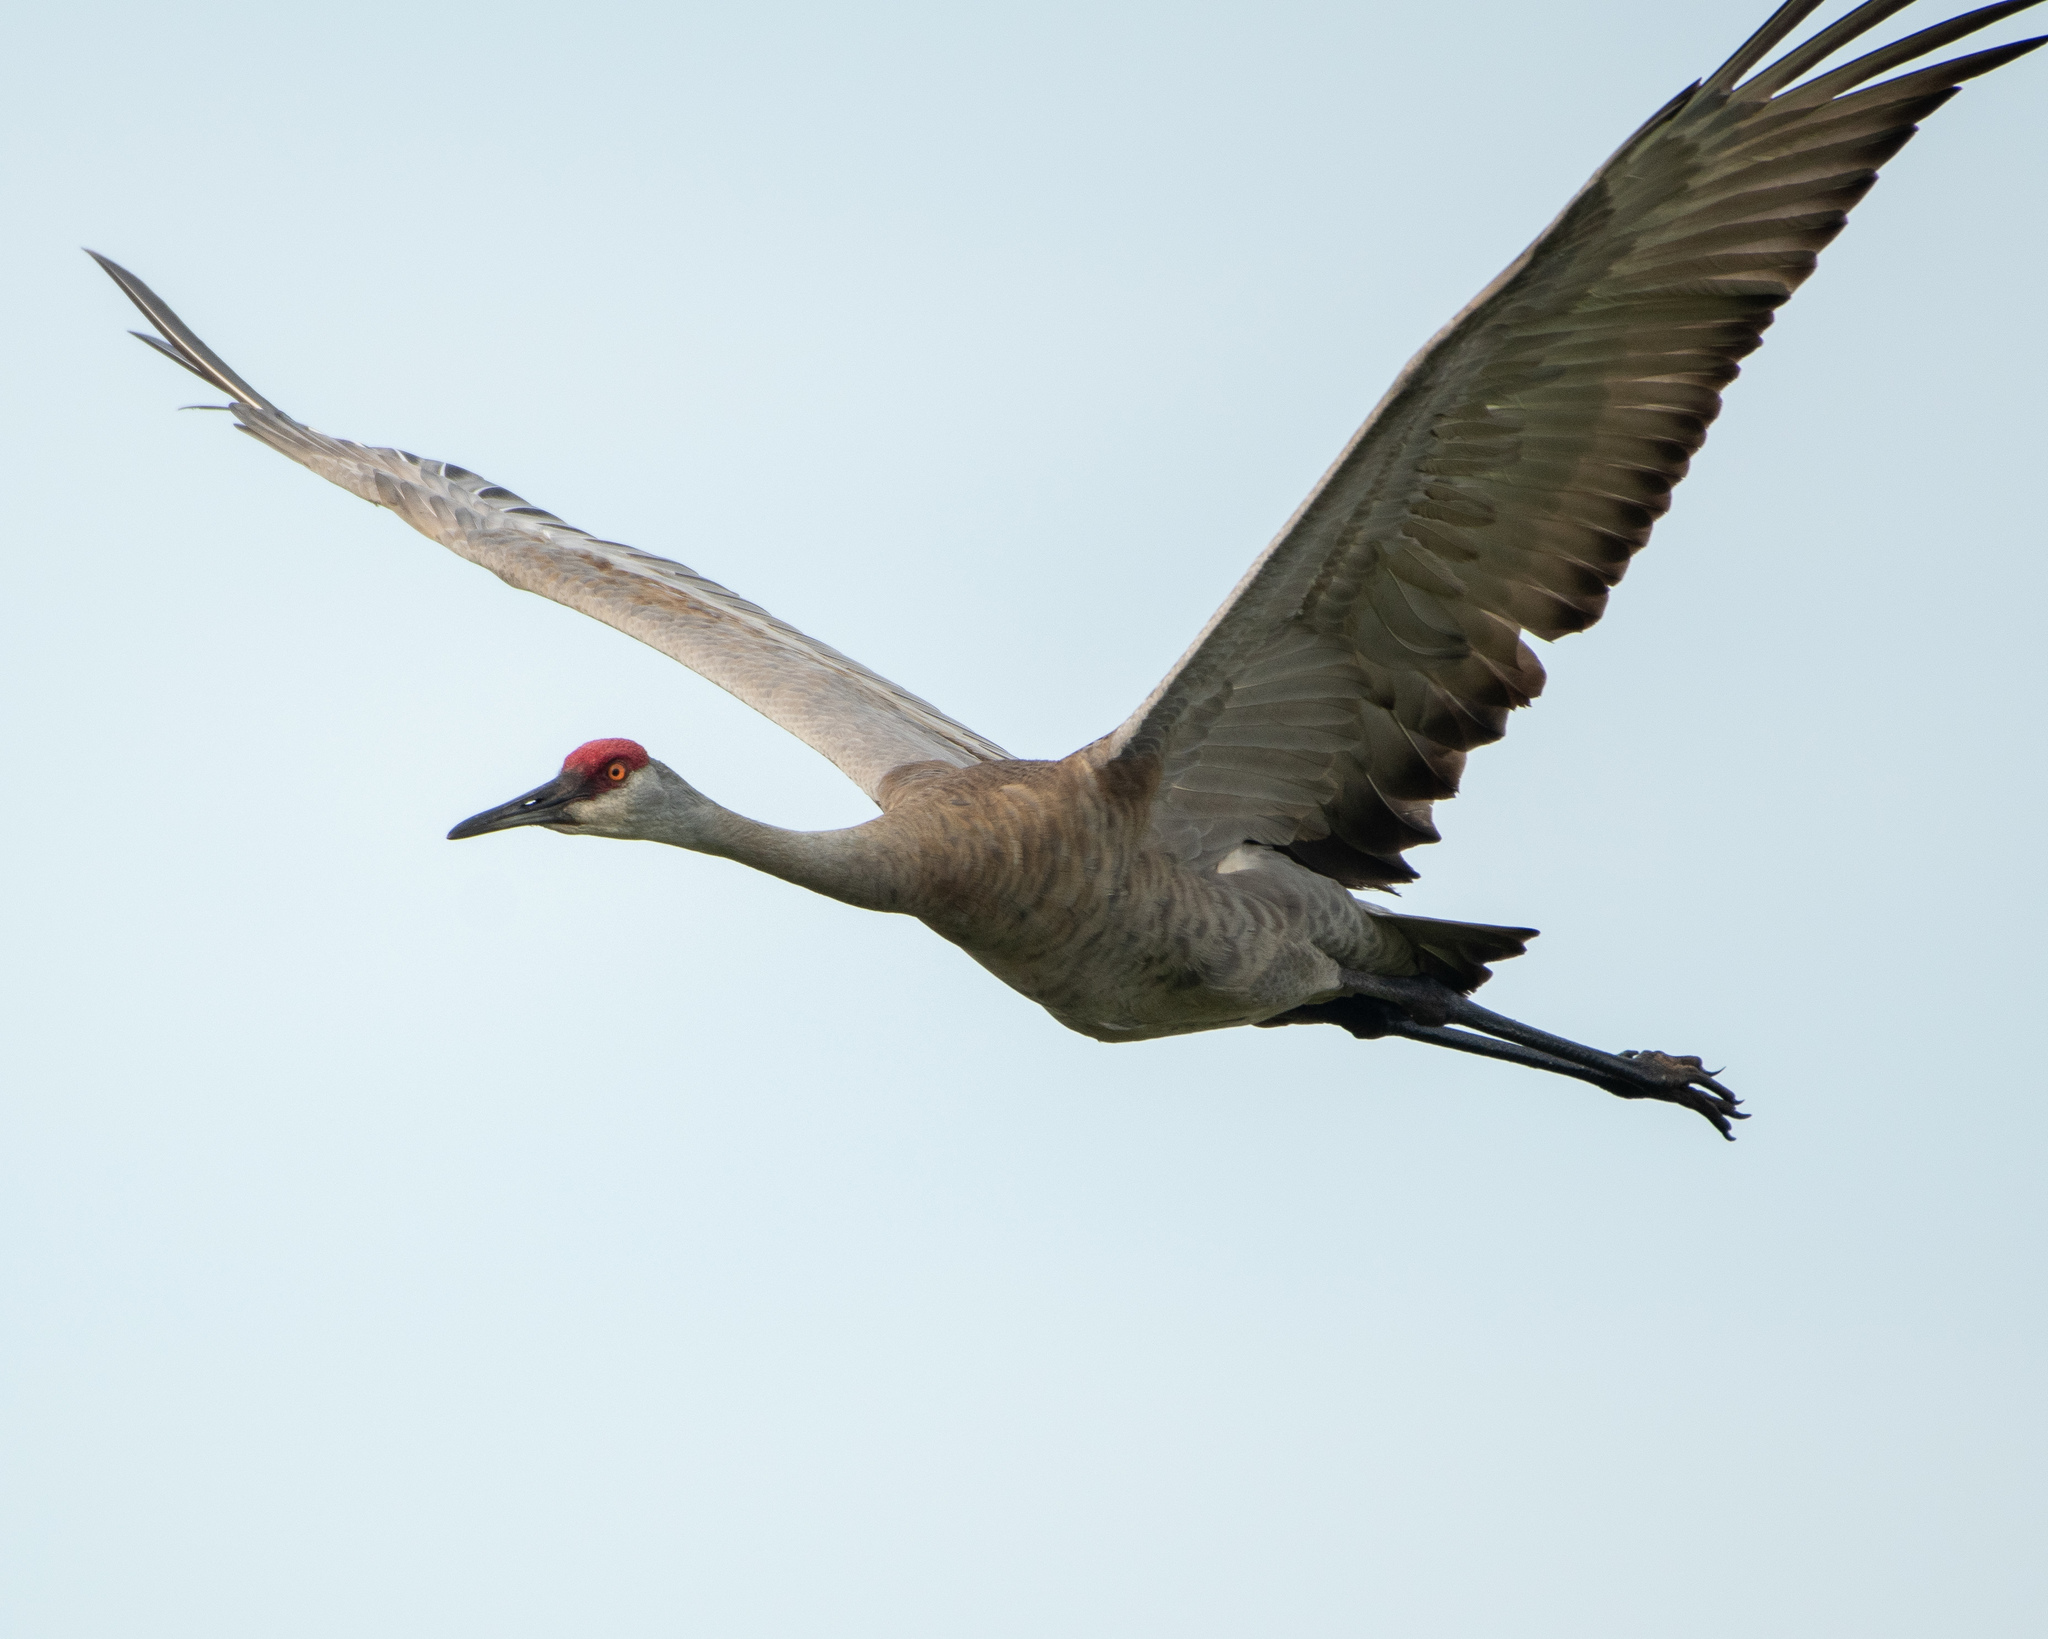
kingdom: Animalia
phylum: Chordata
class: Aves
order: Gruiformes
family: Gruidae
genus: Grus
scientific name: Grus canadensis
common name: Sandhill crane
